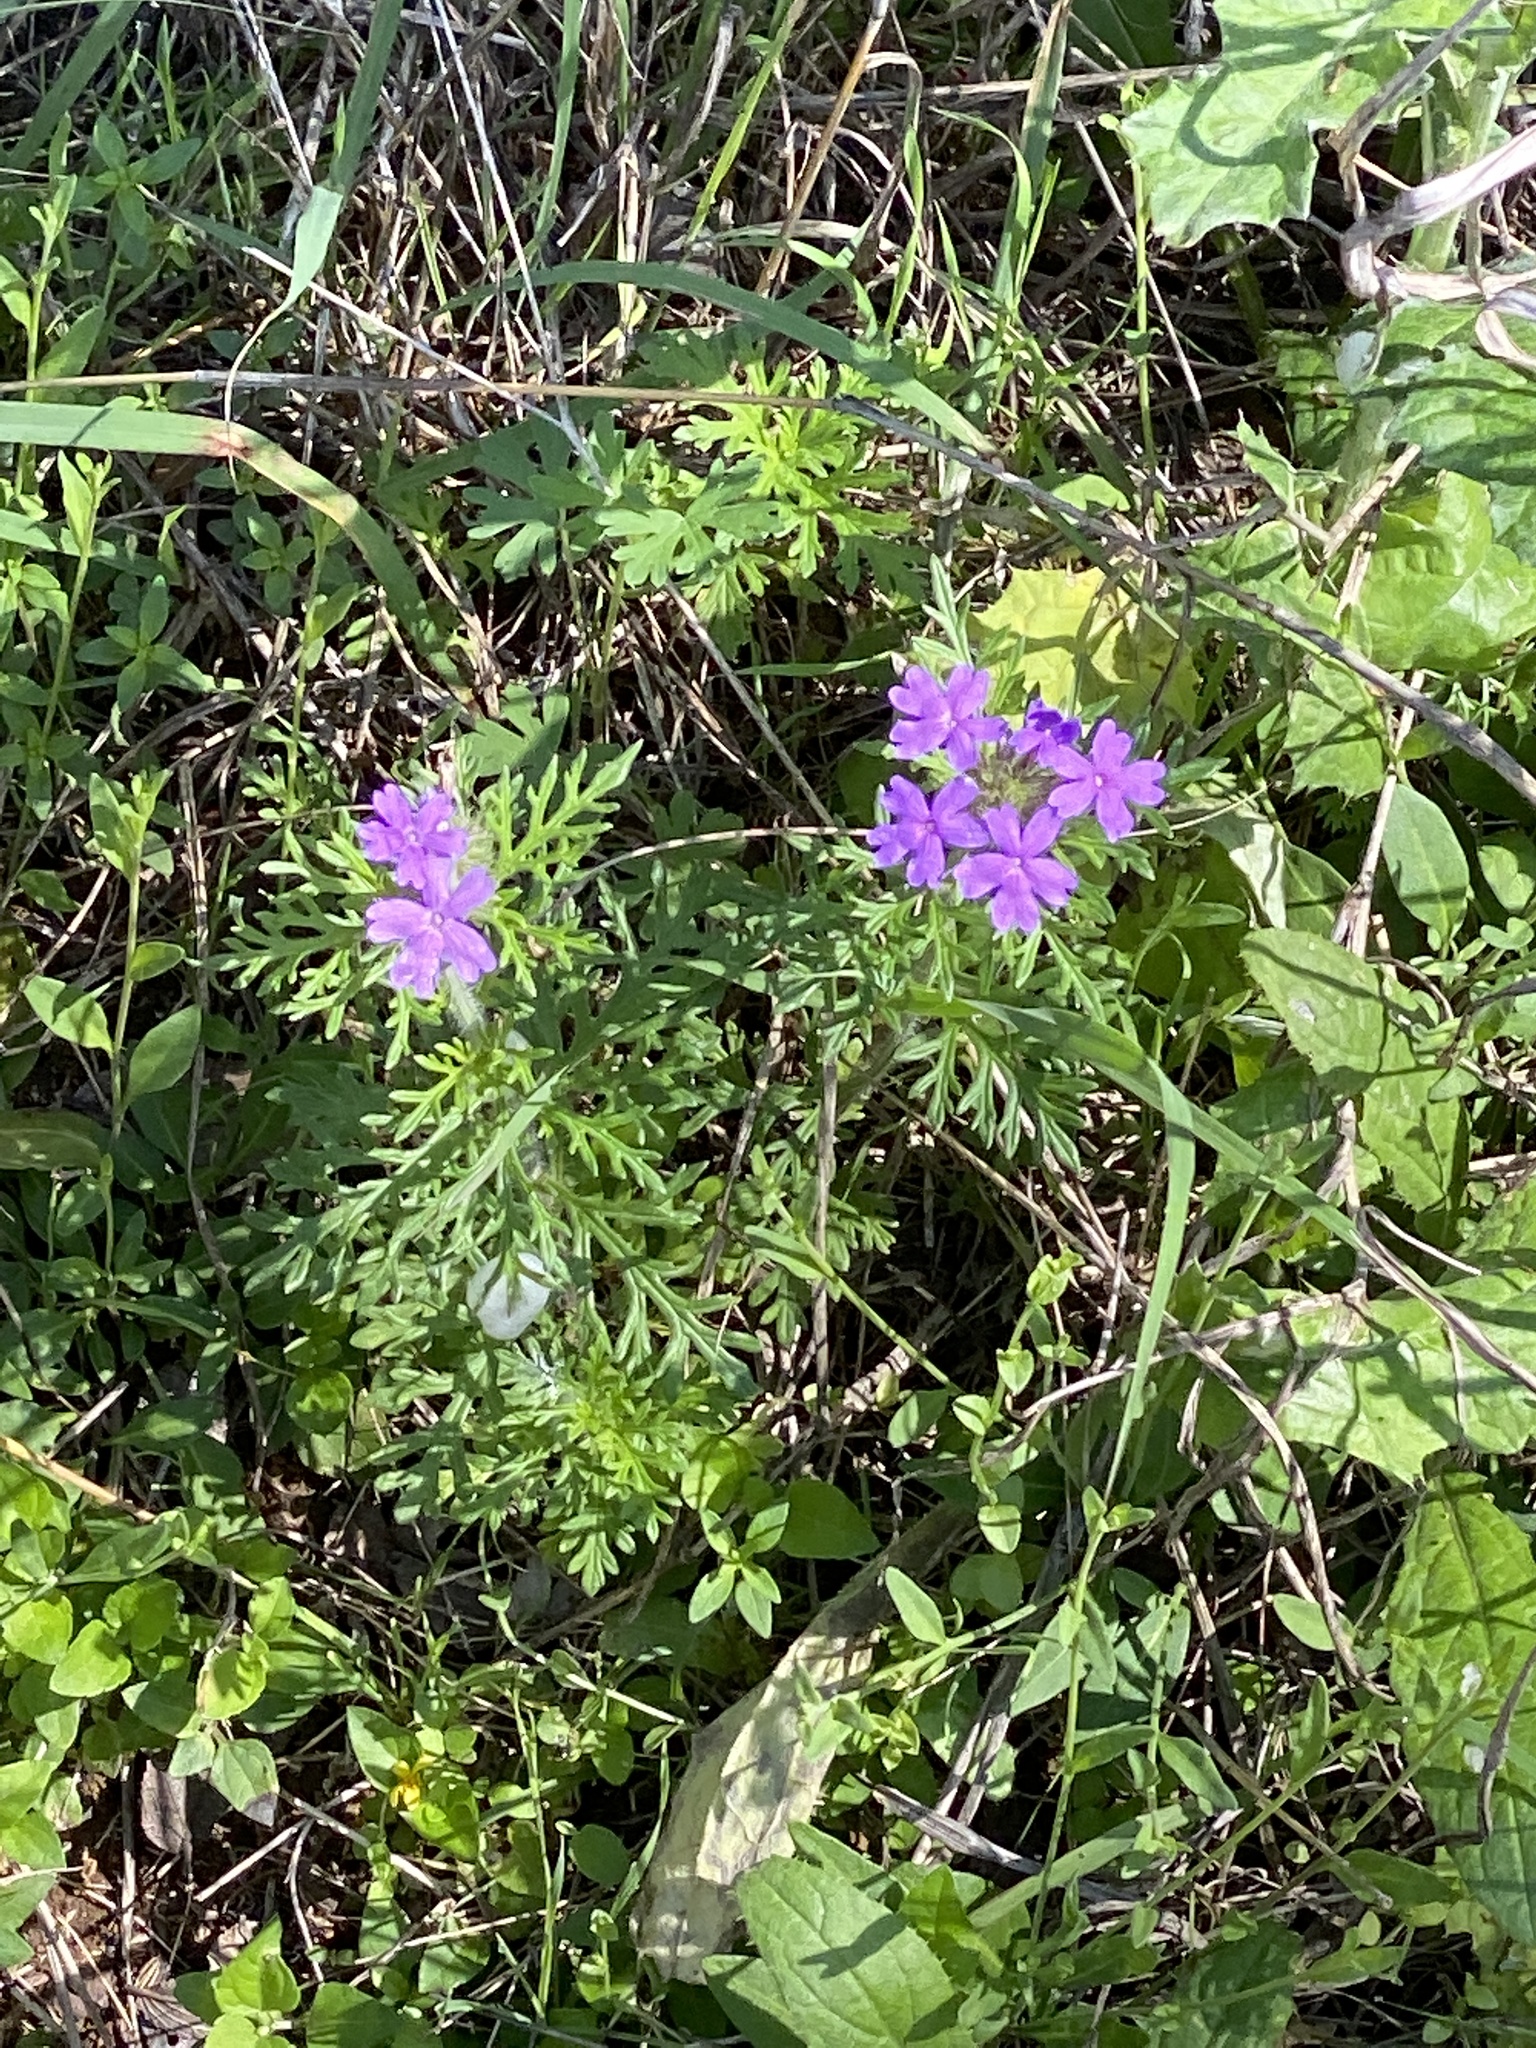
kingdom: Plantae
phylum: Tracheophyta
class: Magnoliopsida
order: Lamiales
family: Verbenaceae
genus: Verbena
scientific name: Verbena bipinnatifida
